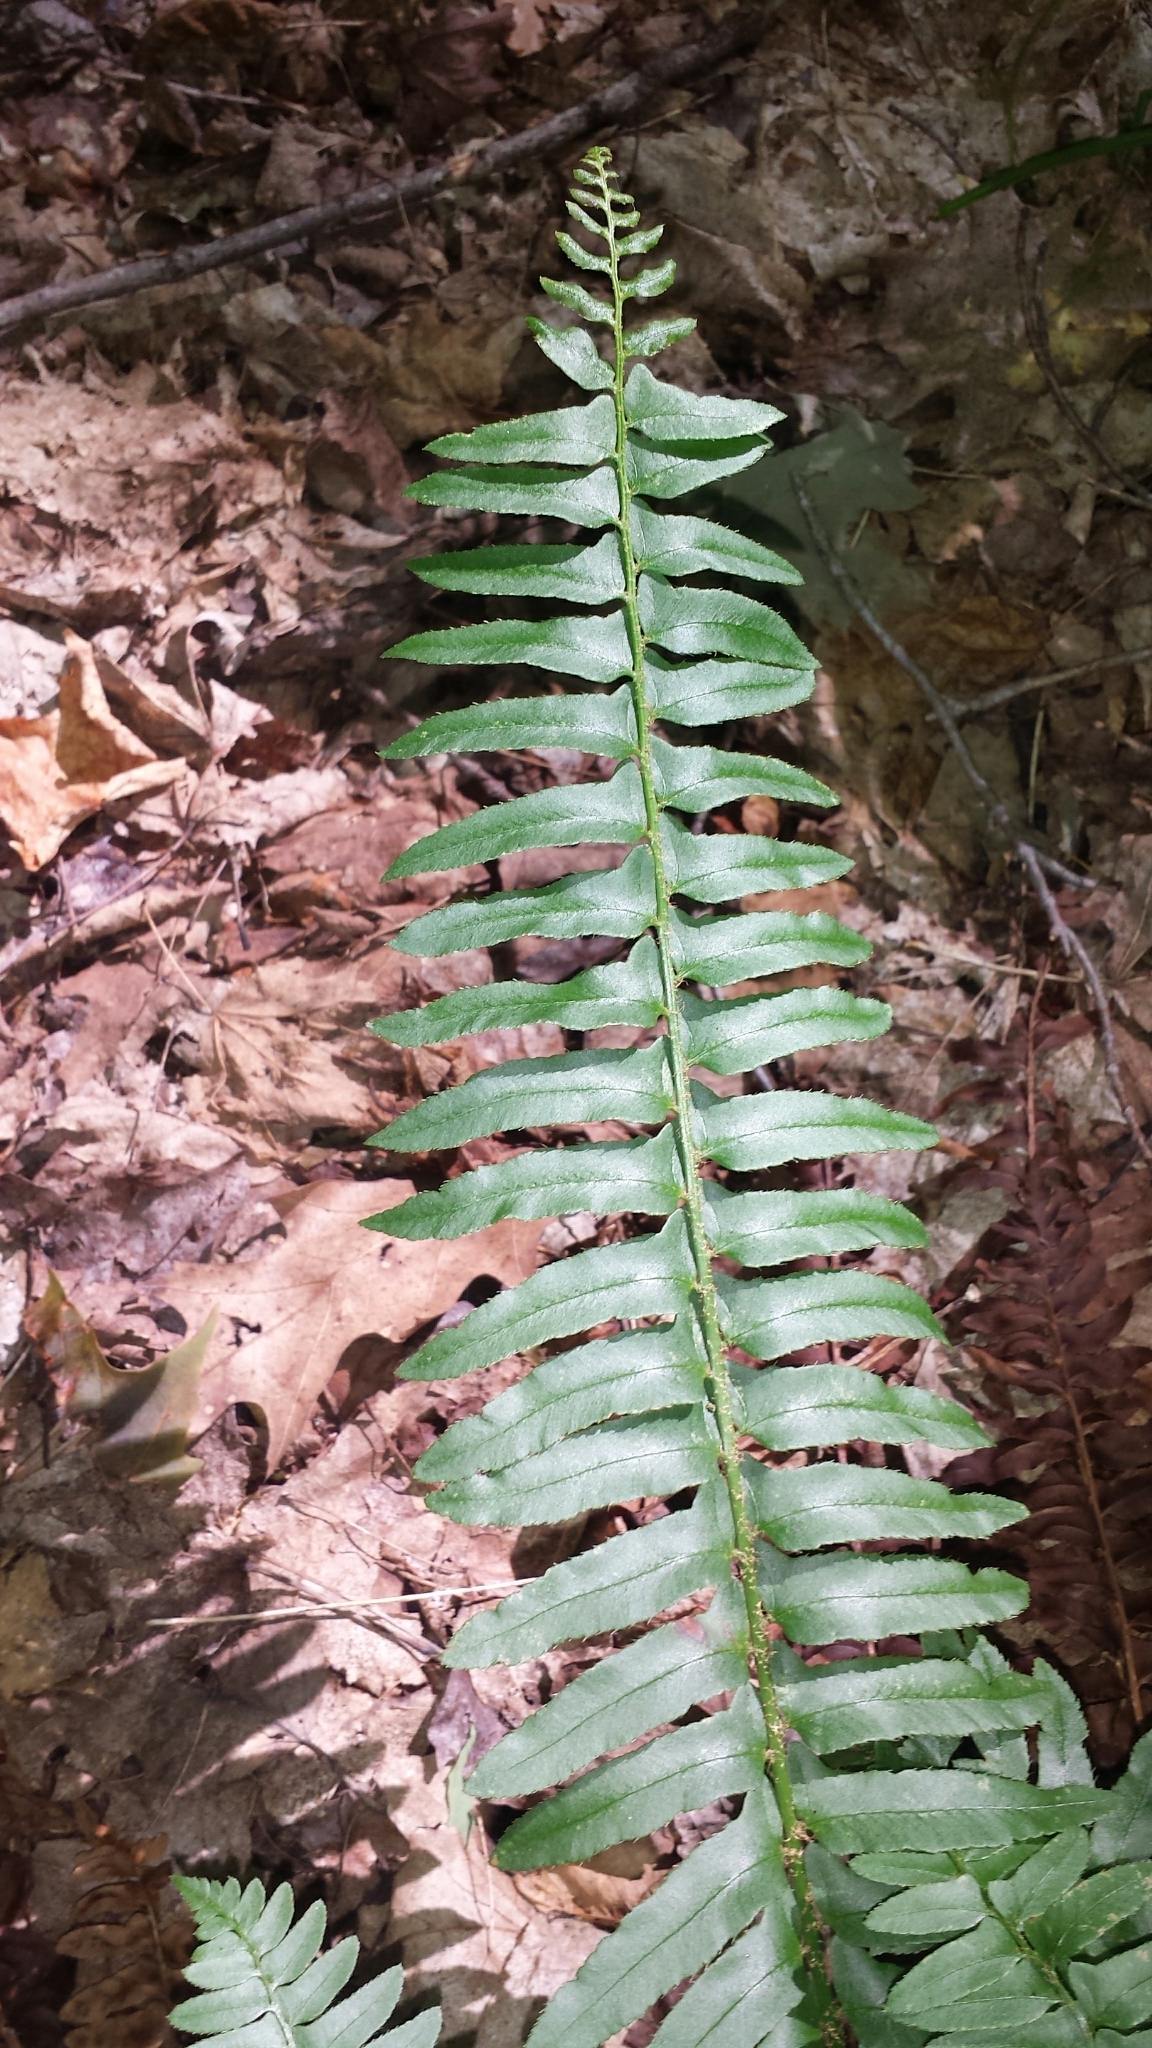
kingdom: Plantae
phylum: Tracheophyta
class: Polypodiopsida
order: Polypodiales
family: Dryopteridaceae
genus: Polystichum
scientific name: Polystichum acrostichoides
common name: Christmas fern
